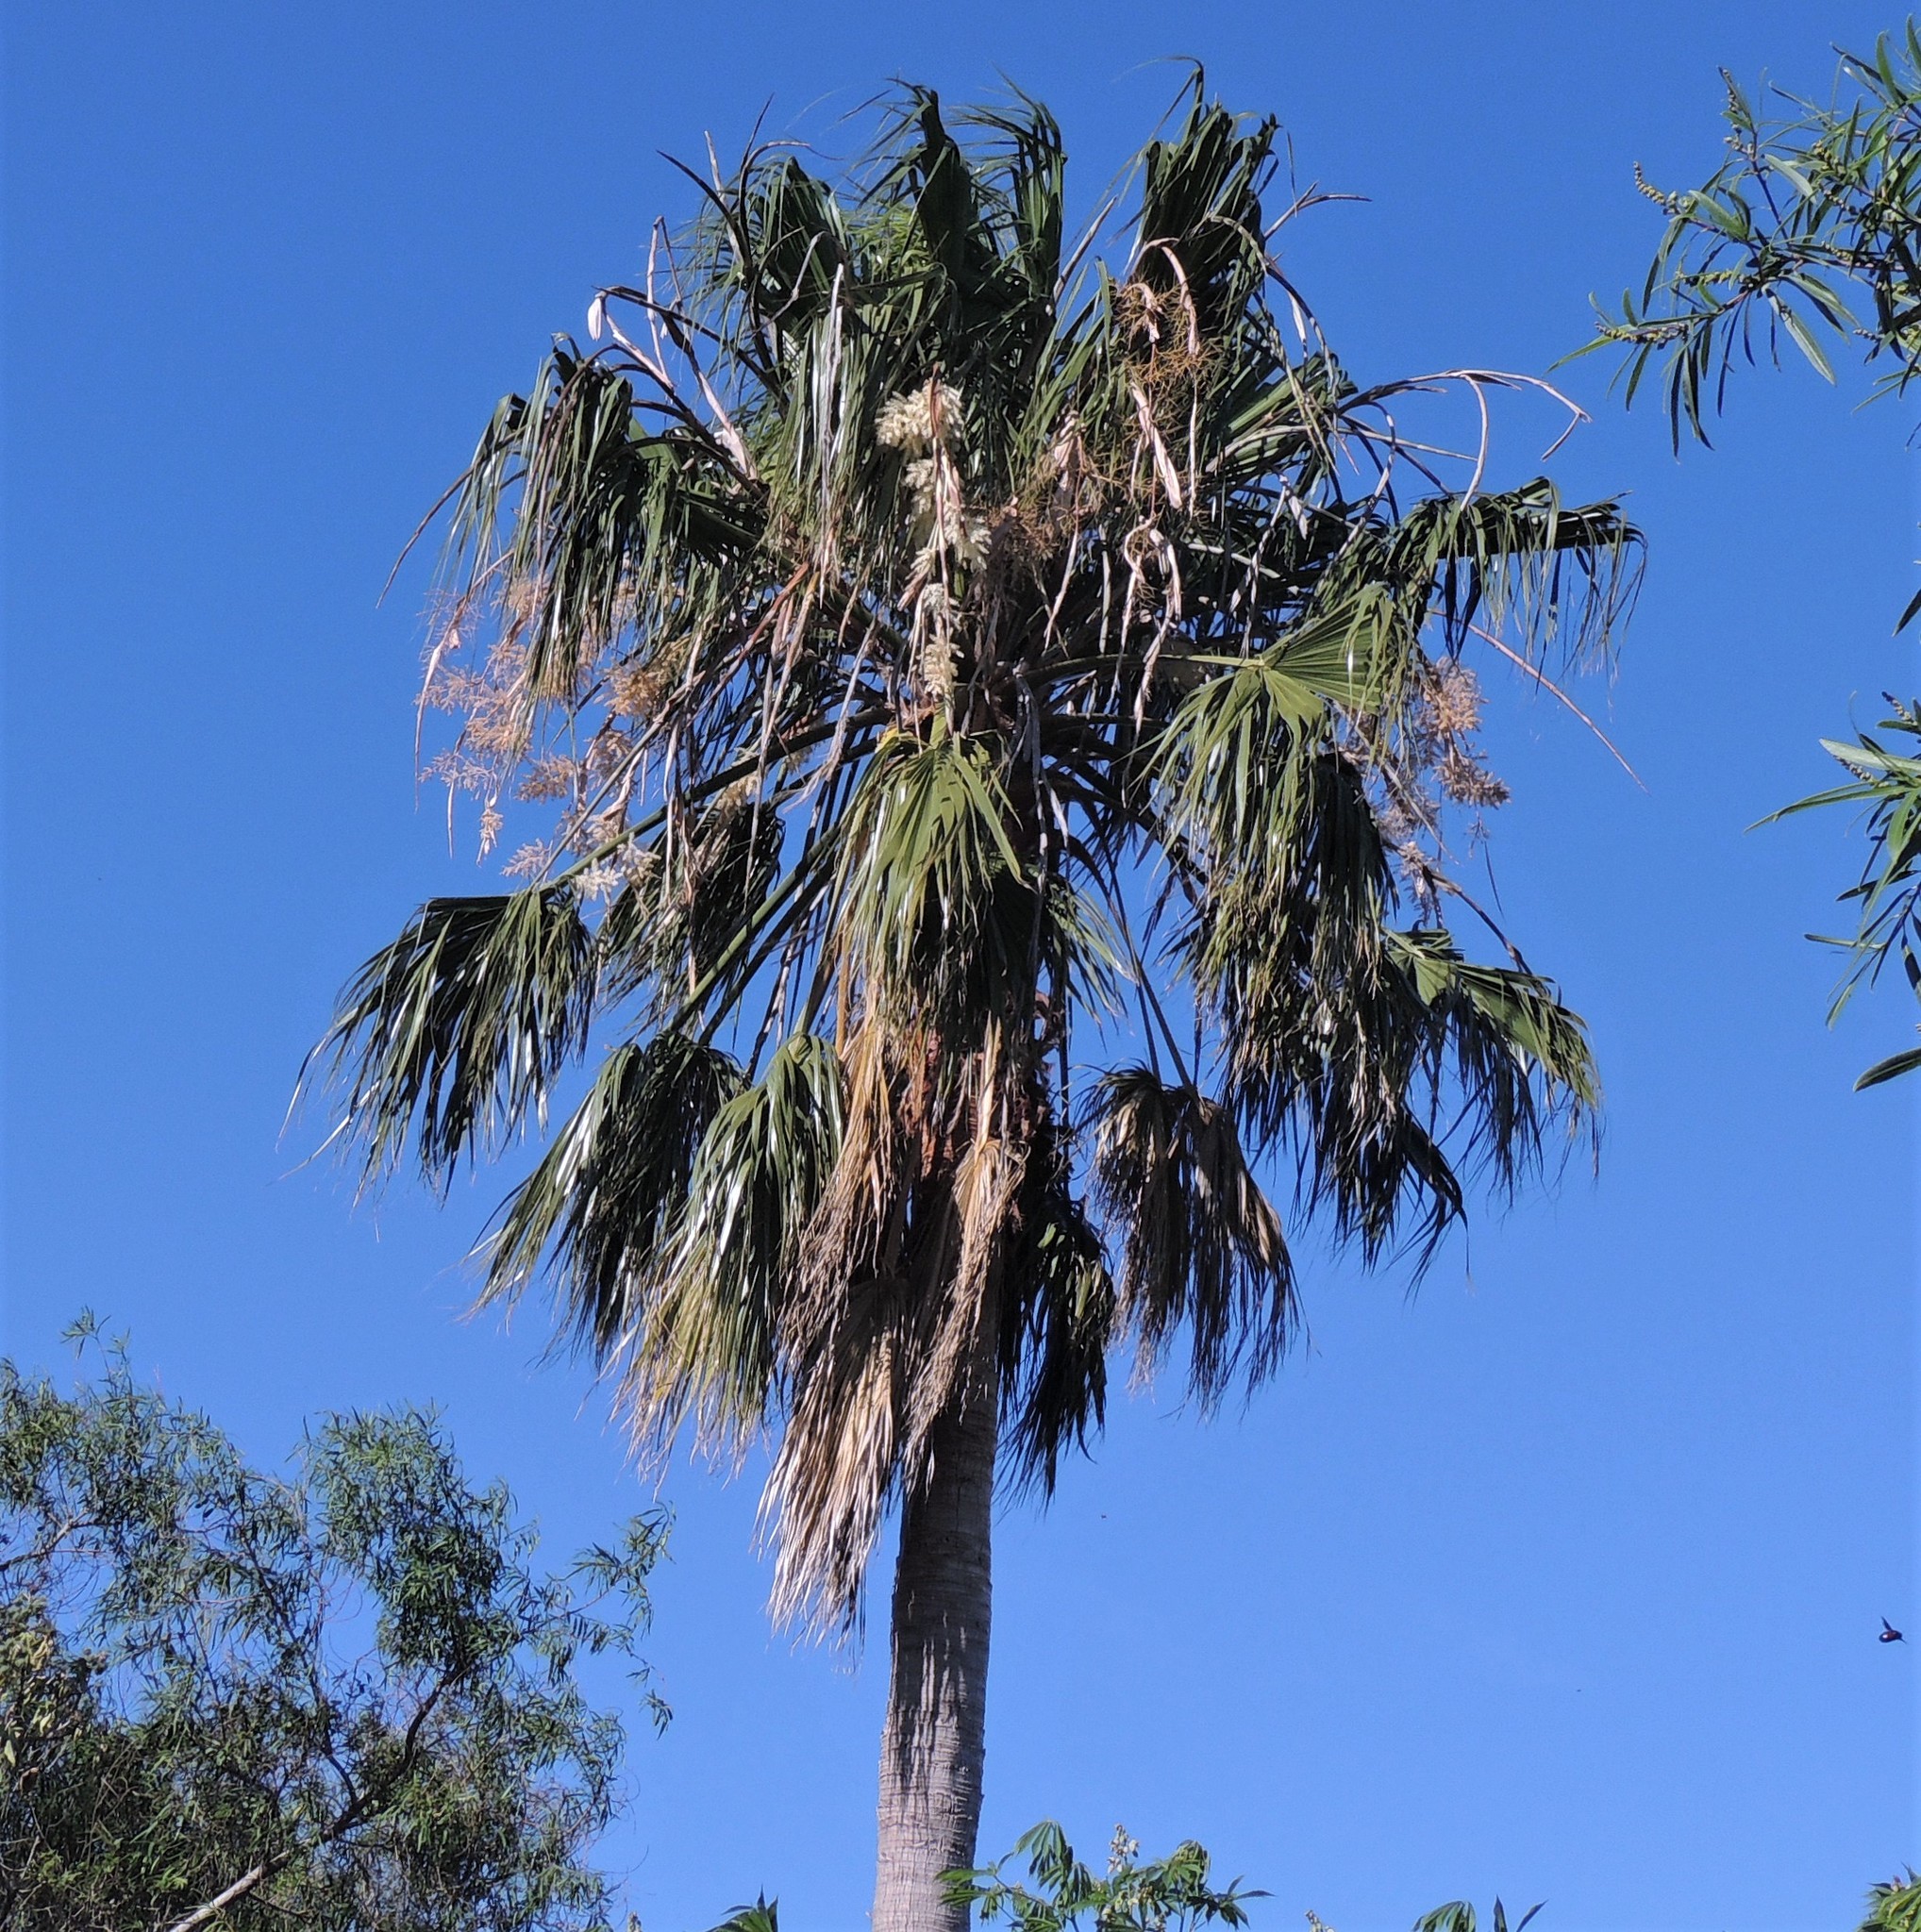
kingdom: Plantae
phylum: Tracheophyta
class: Liliopsida
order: Arecales
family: Arecaceae
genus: Washingtonia
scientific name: Washingtonia robusta
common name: Mexican fan palm
